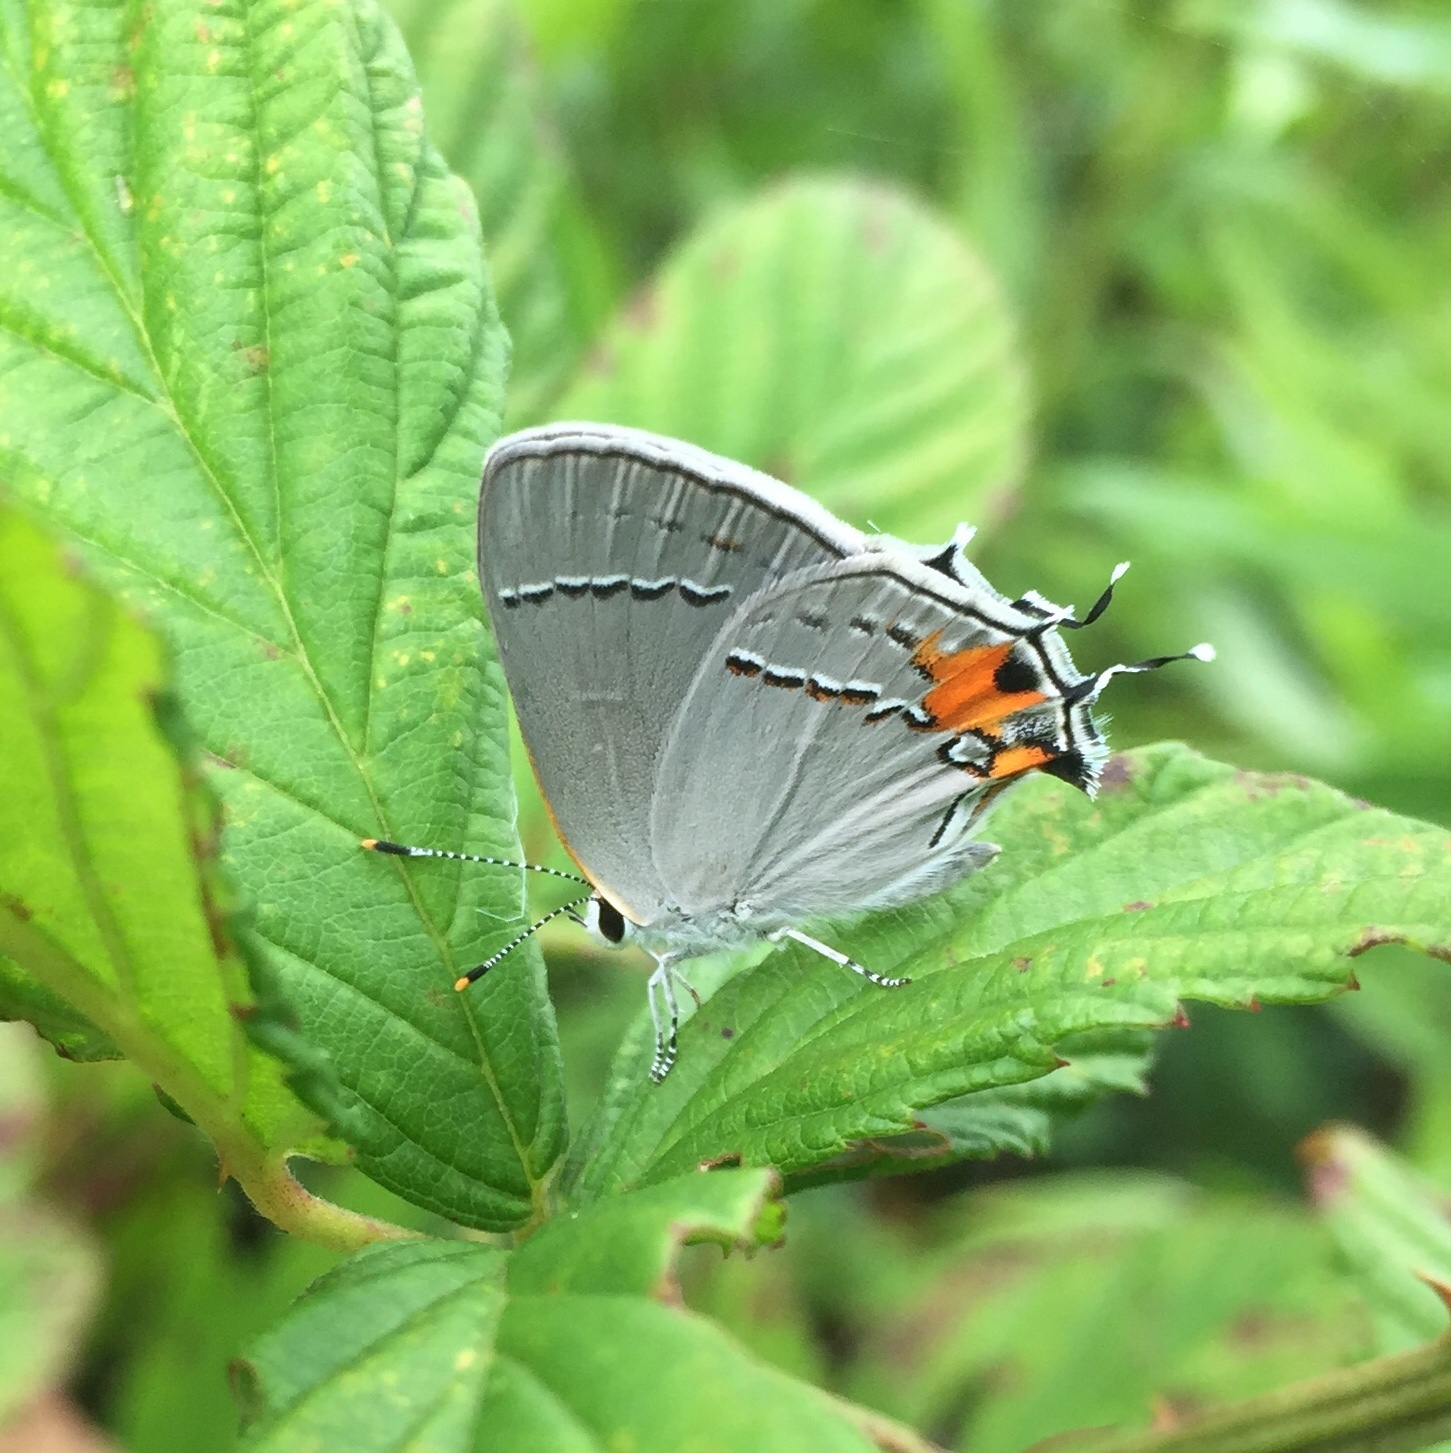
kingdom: Animalia
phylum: Arthropoda
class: Insecta
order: Lepidoptera
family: Lycaenidae
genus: Strymon
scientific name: Strymon melinus
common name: Gray hairstreak
